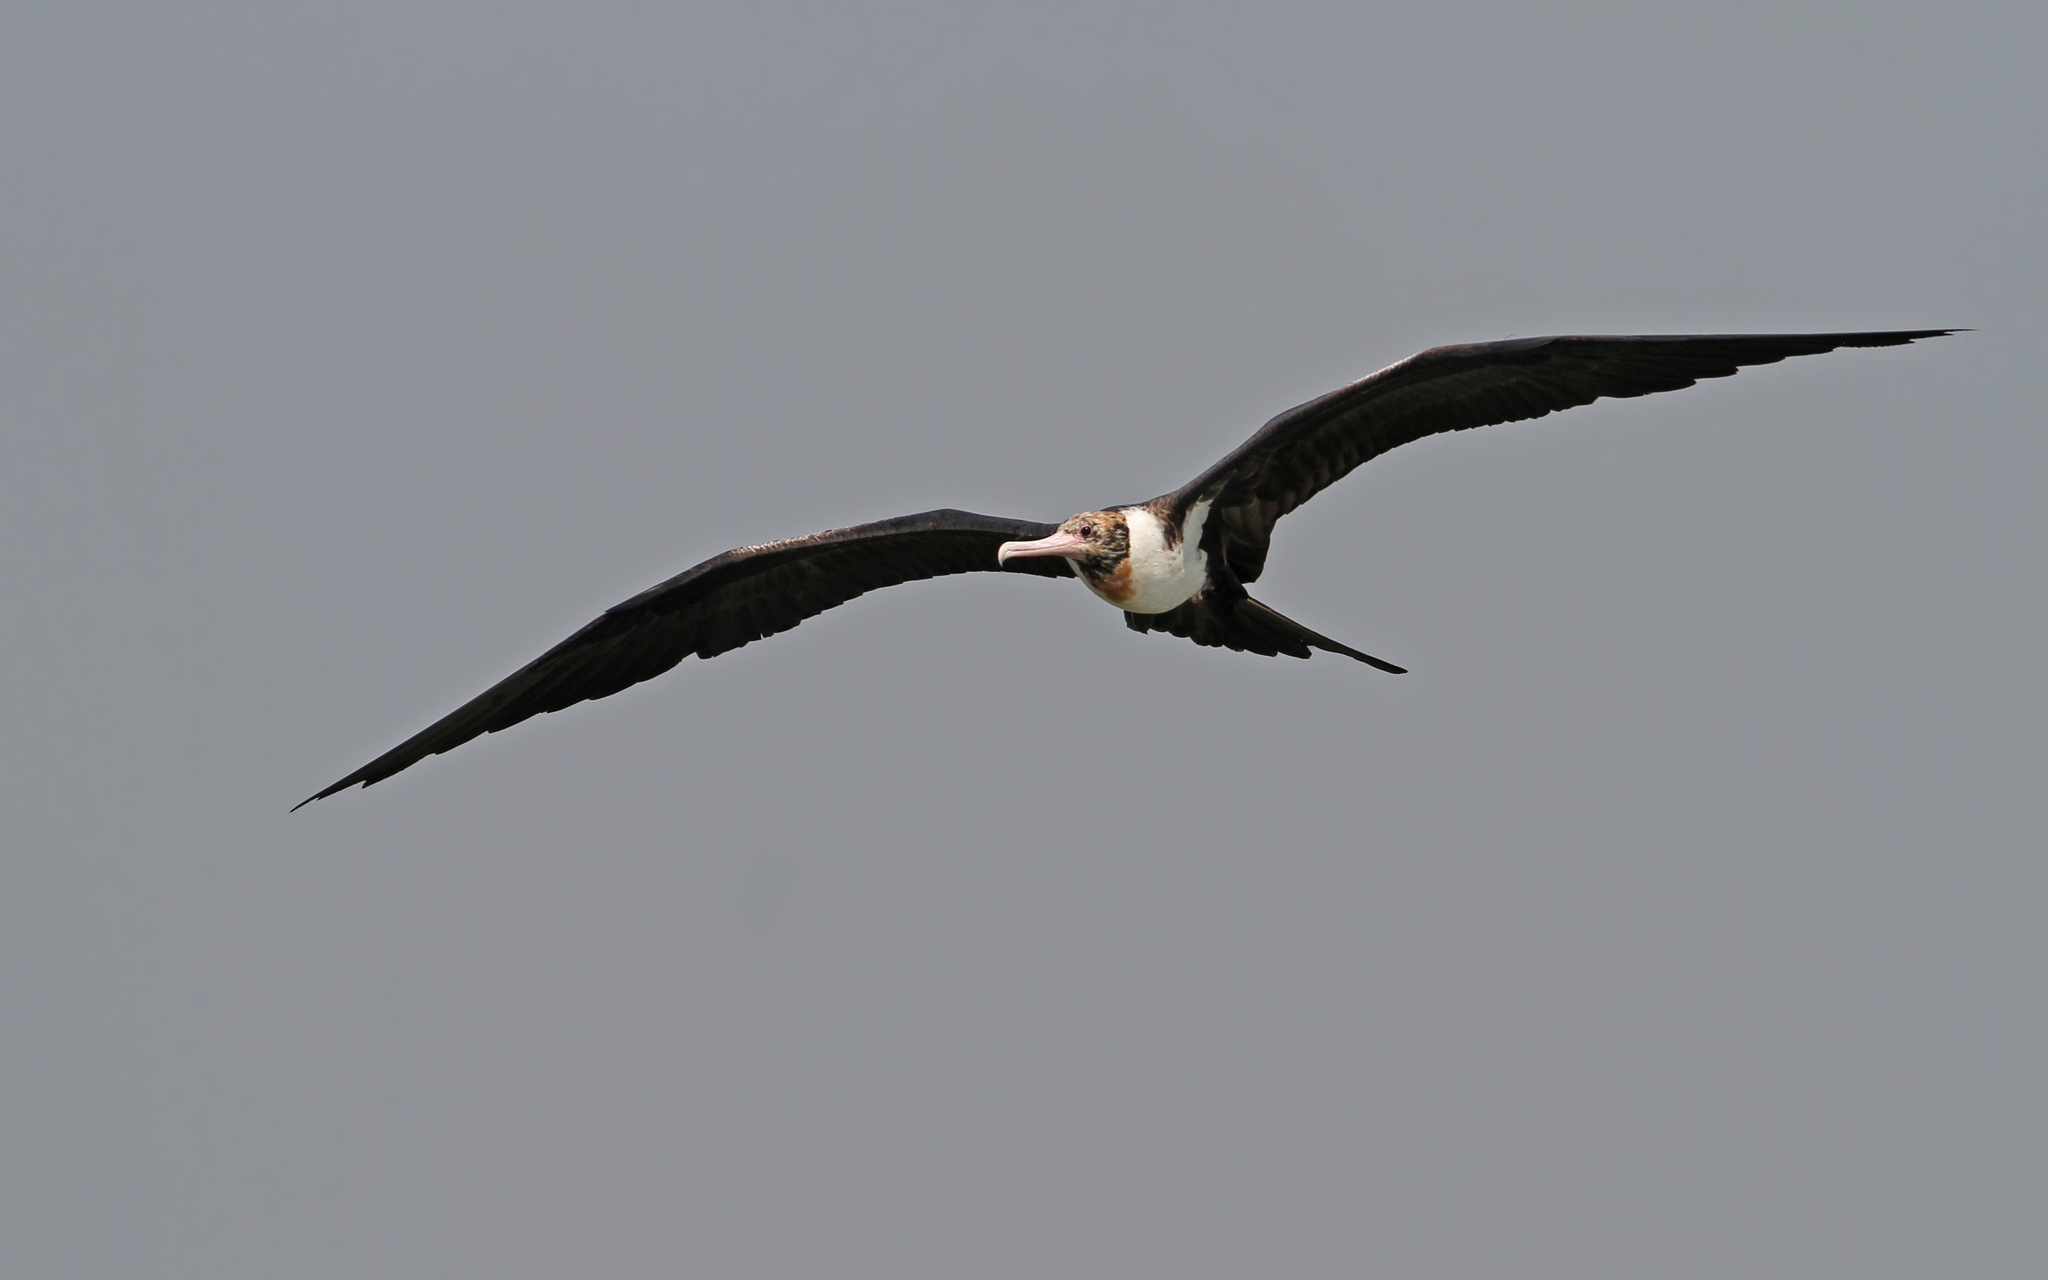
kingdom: Animalia
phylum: Chordata
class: Aves
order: Suliformes
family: Fregatidae
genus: Fregata
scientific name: Fregata andrewsi
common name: Christmas frigatebird
